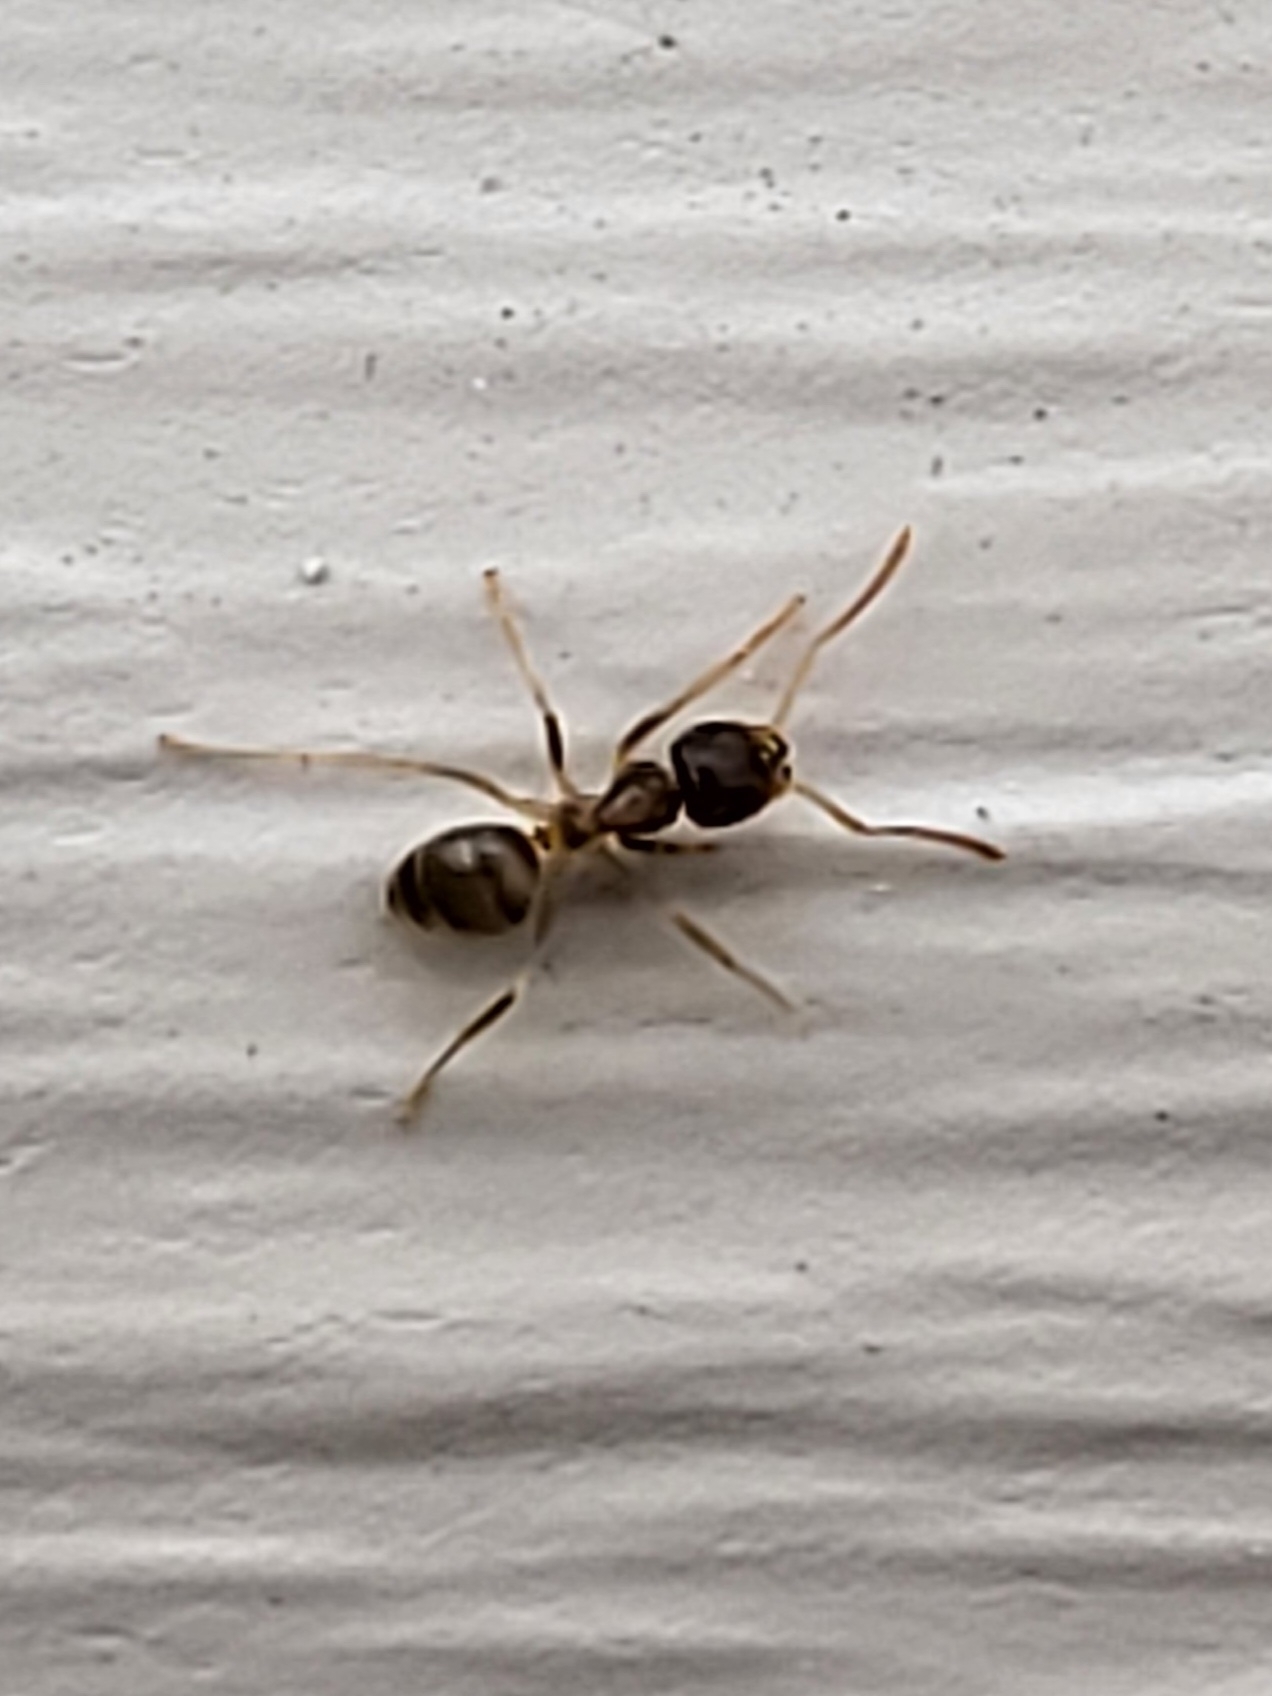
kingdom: Animalia
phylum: Arthropoda
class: Insecta
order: Hymenoptera
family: Formicidae
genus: Tapinoma
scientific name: Tapinoma sessile
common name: Odorous house ant
